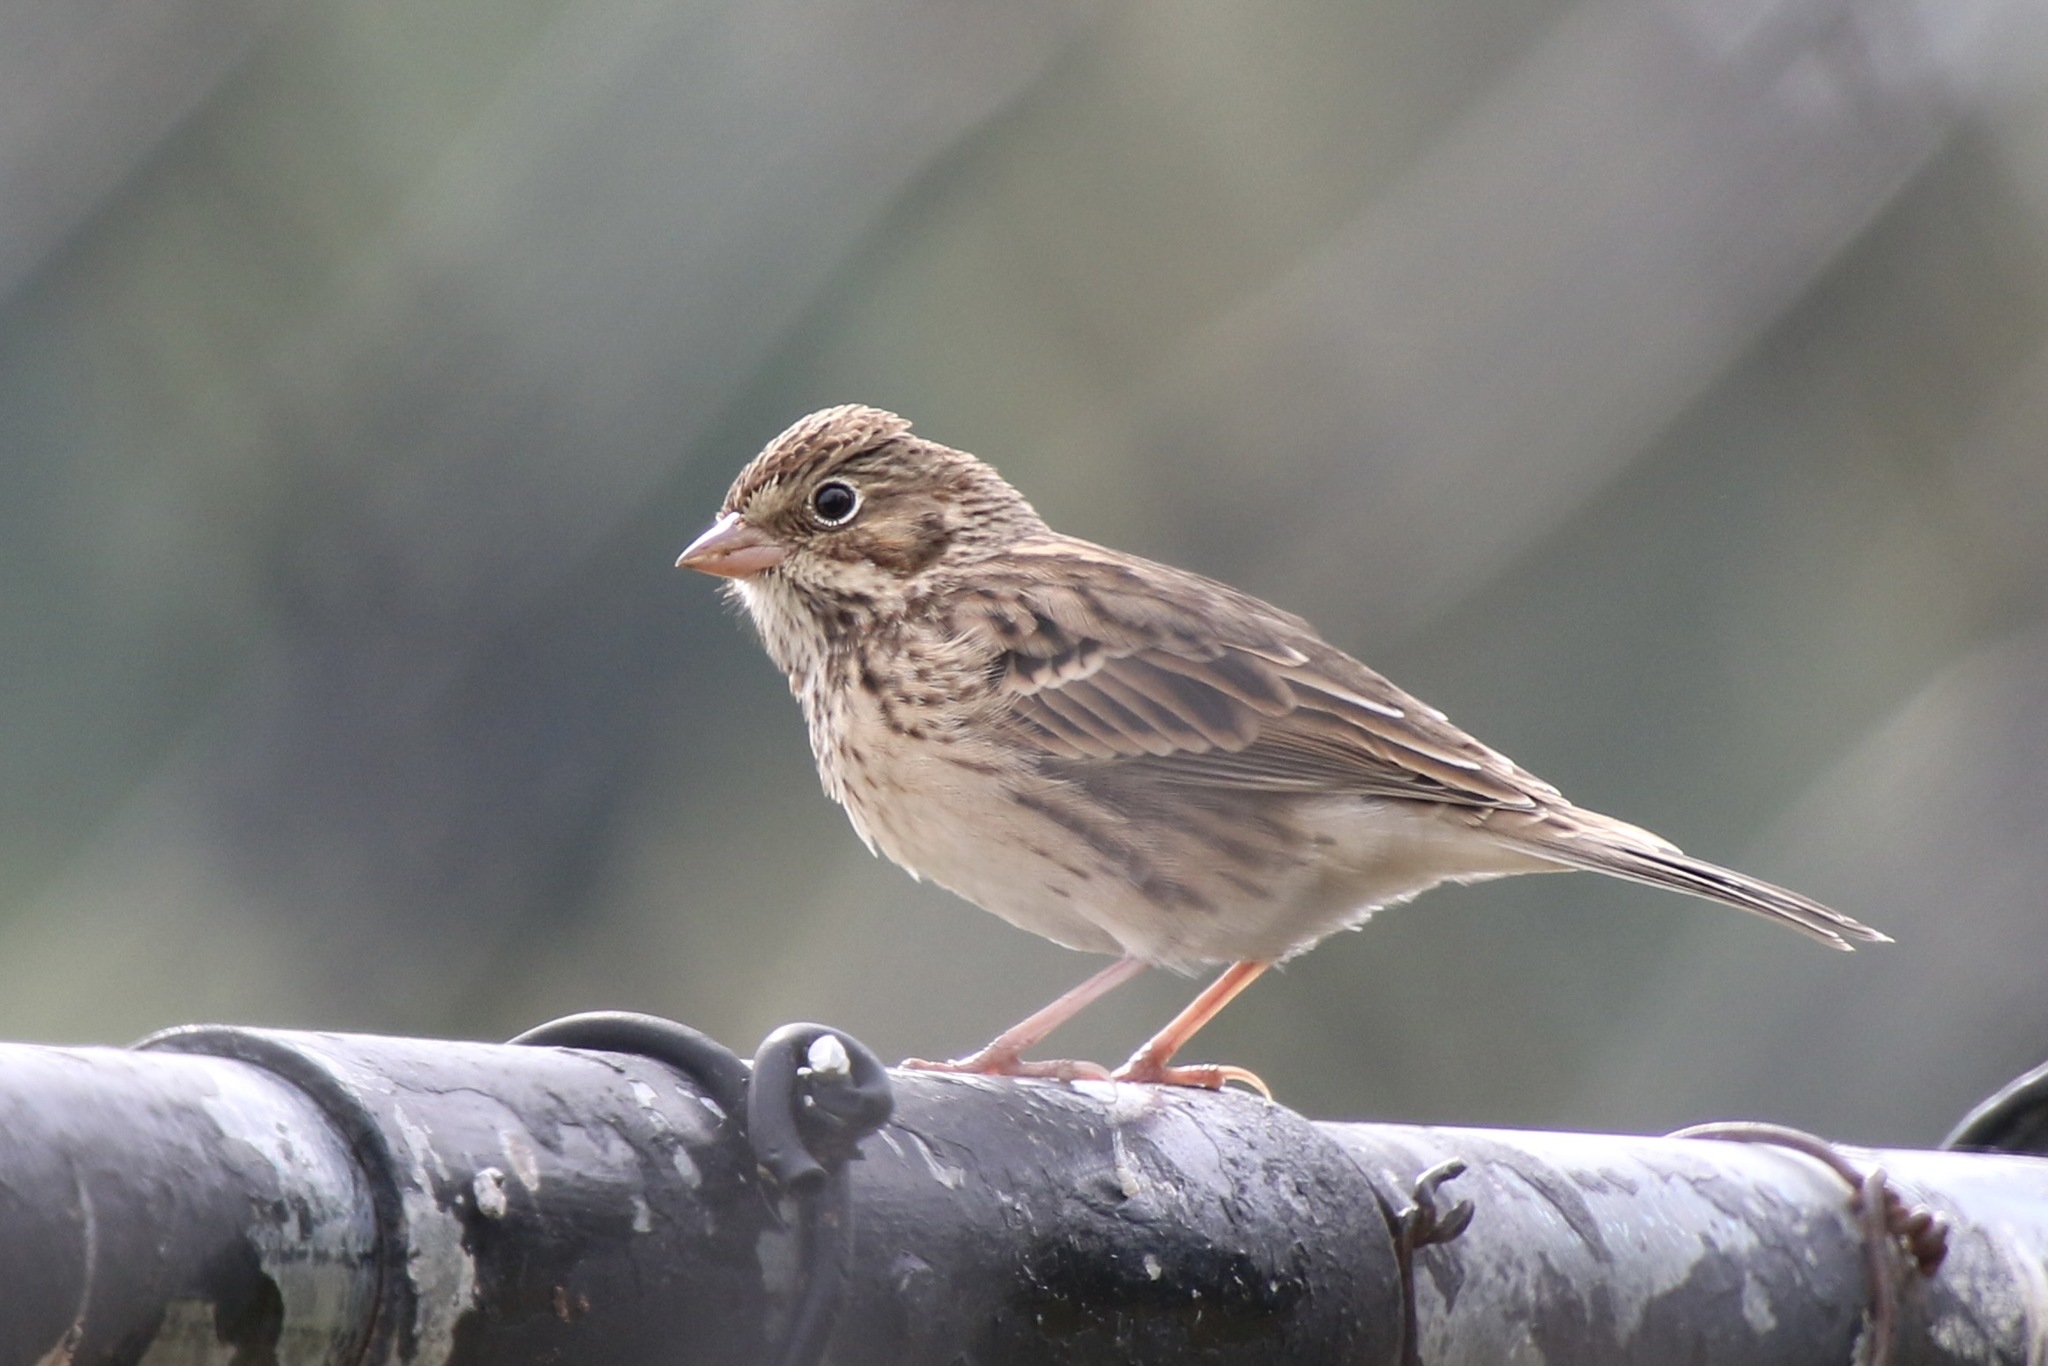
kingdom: Animalia
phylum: Chordata
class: Aves
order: Passeriformes
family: Passerellidae
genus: Pooecetes
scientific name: Pooecetes gramineus
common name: Vesper sparrow
